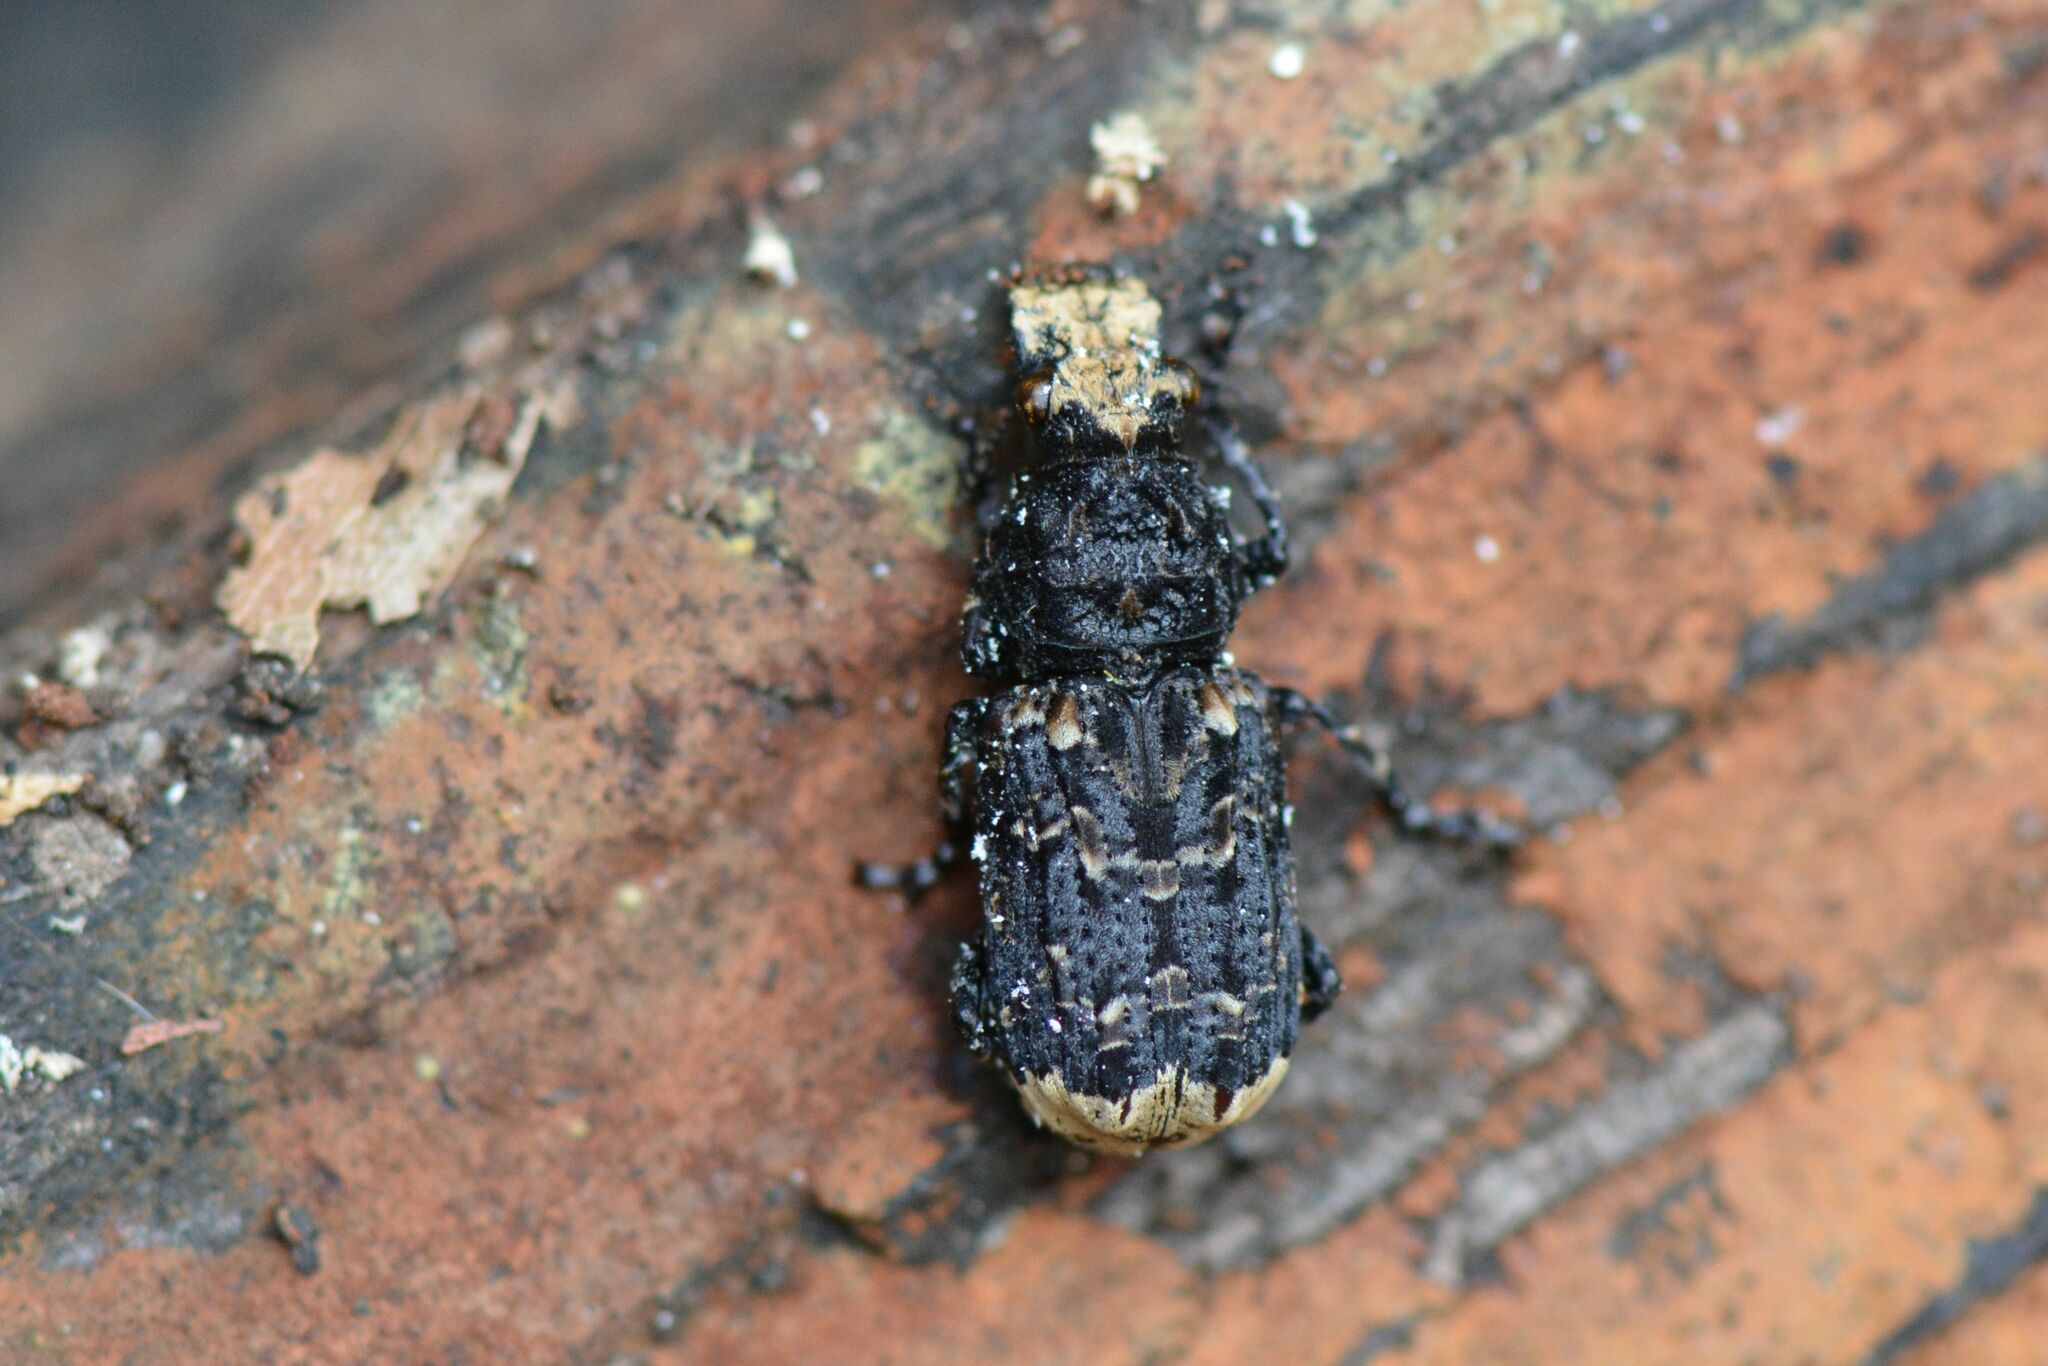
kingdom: Animalia
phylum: Arthropoda
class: Insecta
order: Coleoptera
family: Anthribidae
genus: Platyrhinus
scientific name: Platyrhinus resinosus
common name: Cramp-ball fungus weevil
